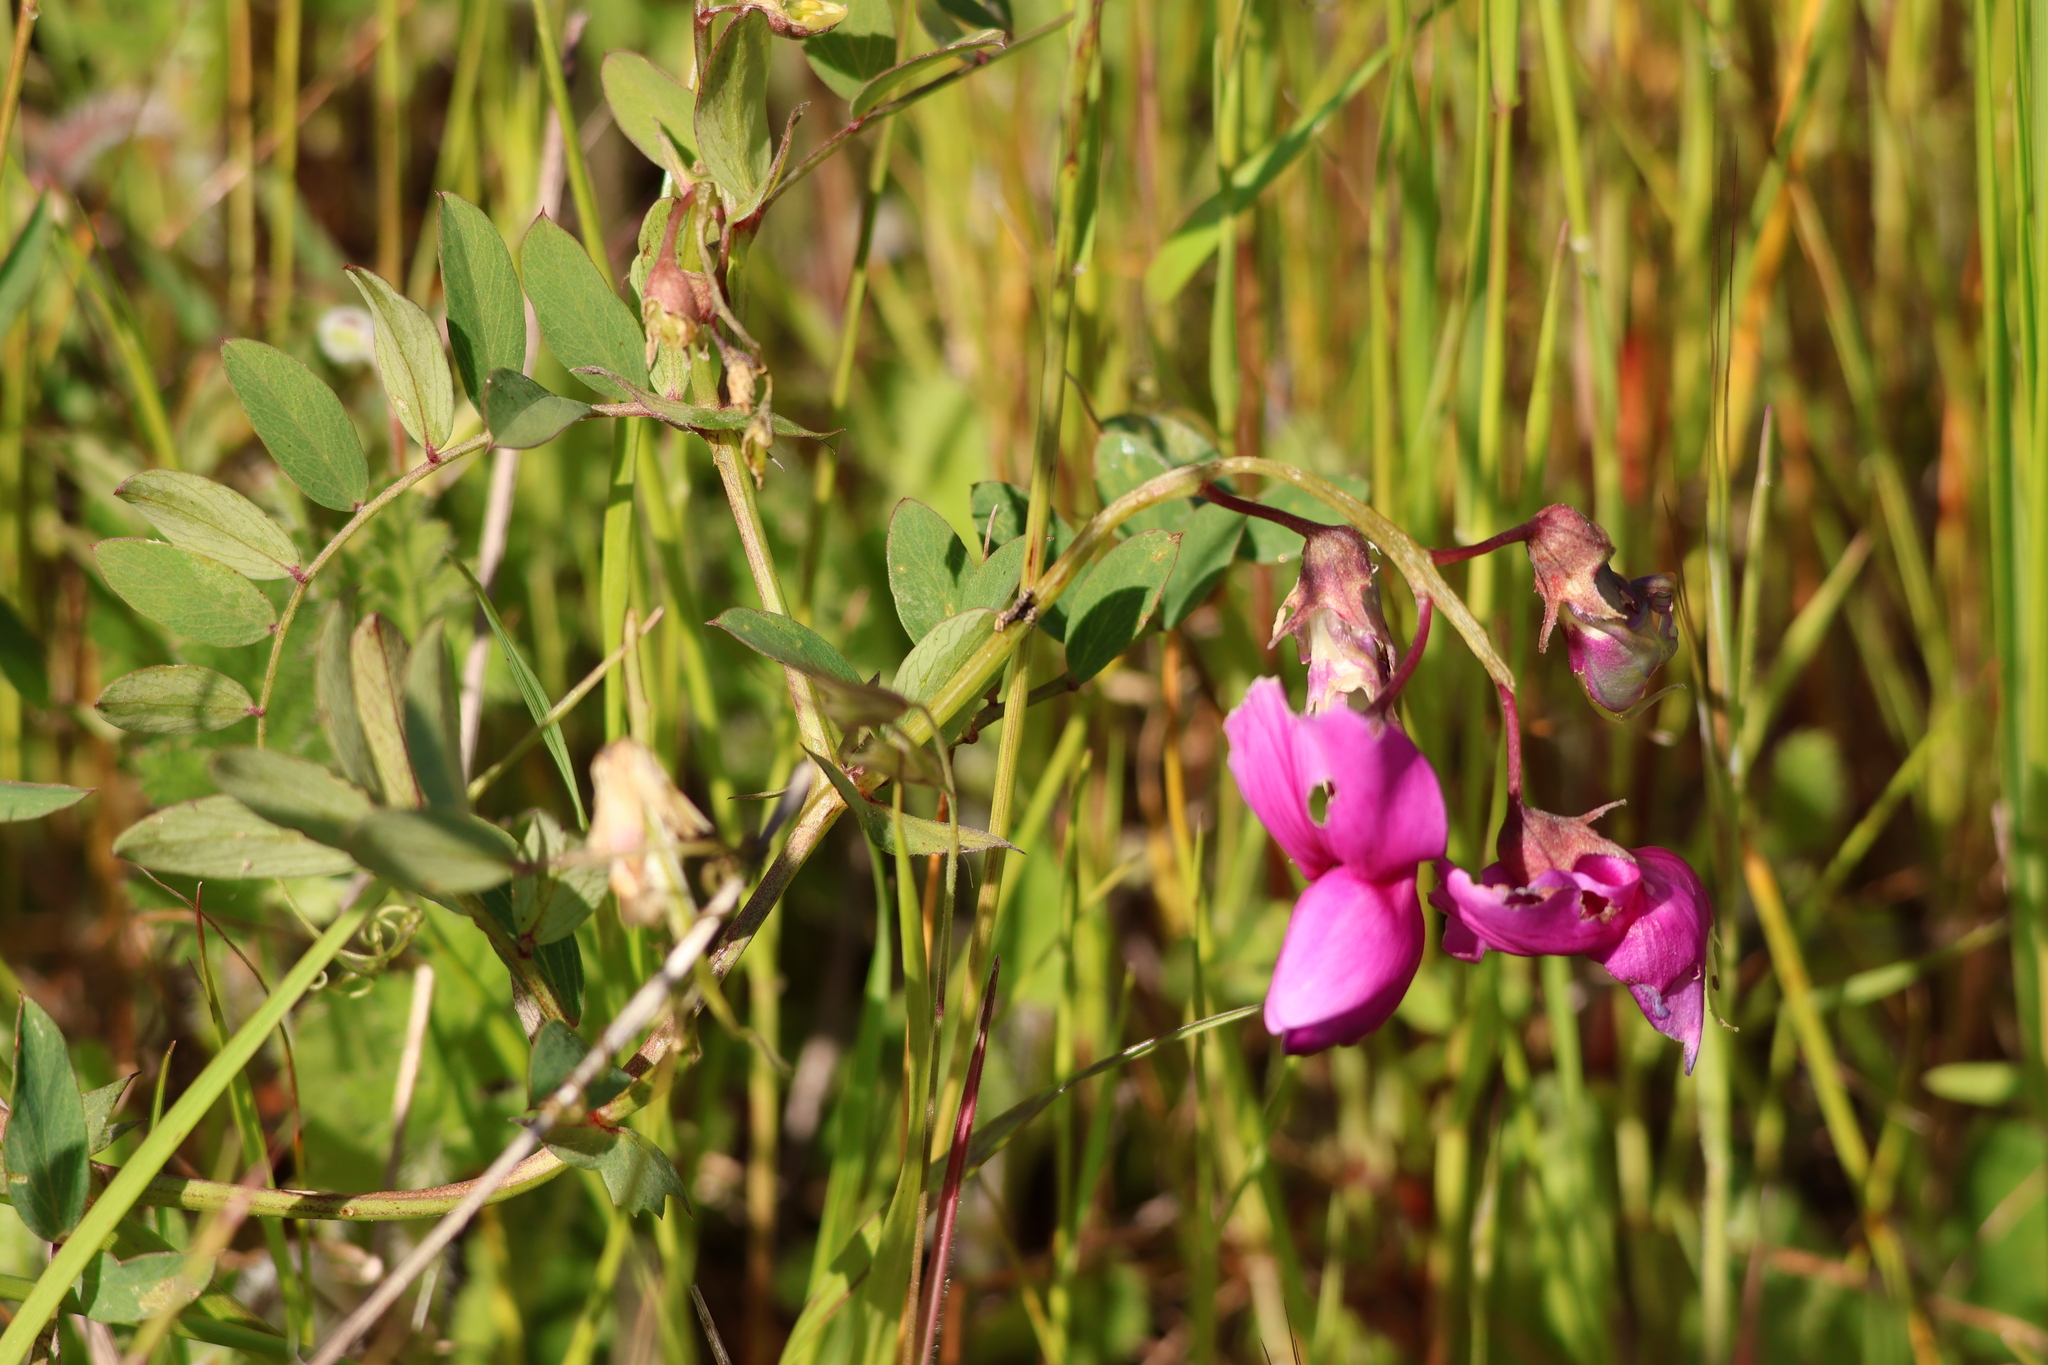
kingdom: Plantae
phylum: Tracheophyta
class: Magnoliopsida
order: Fabales
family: Fabaceae
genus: Lathyrus
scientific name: Lathyrus vestitus
